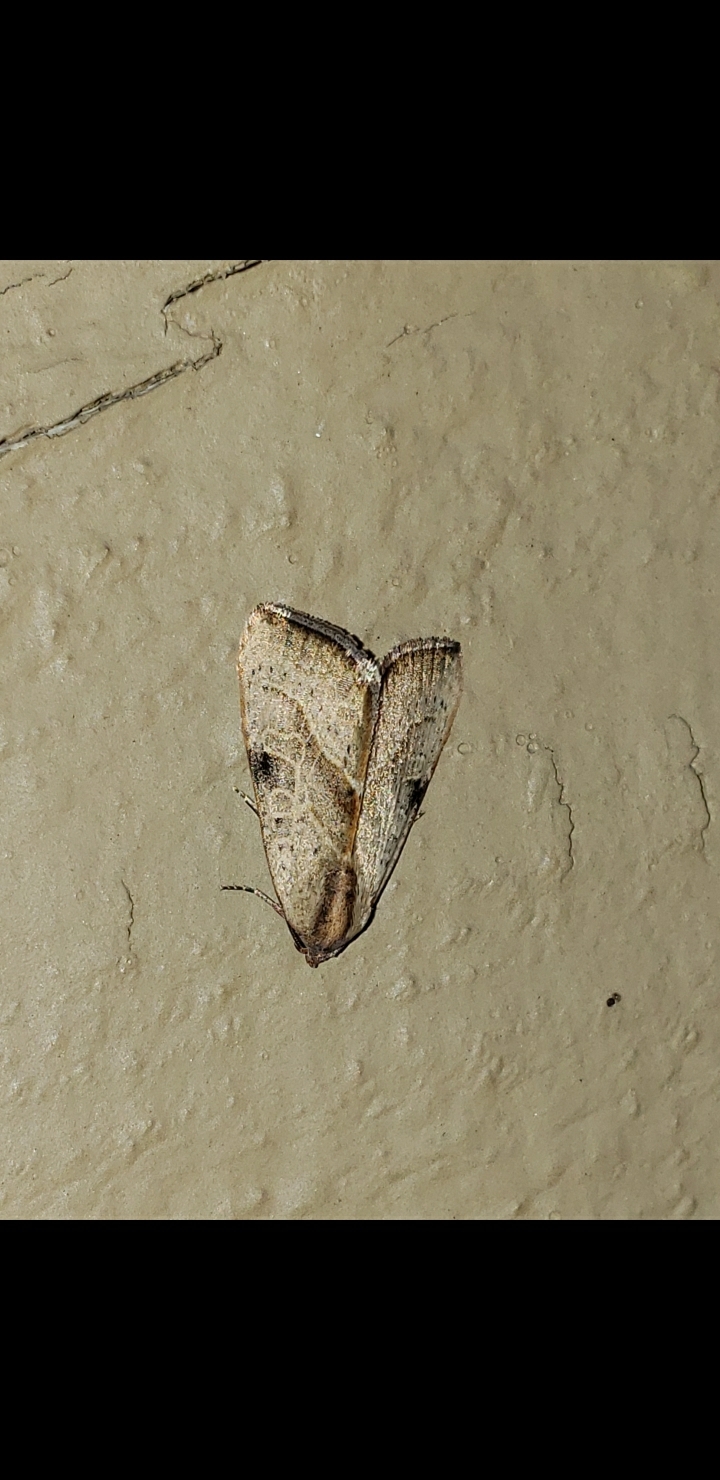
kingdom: Animalia
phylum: Arthropoda
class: Insecta
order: Lepidoptera
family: Noctuidae
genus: Galgula
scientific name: Galgula partita
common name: Wedgeling
